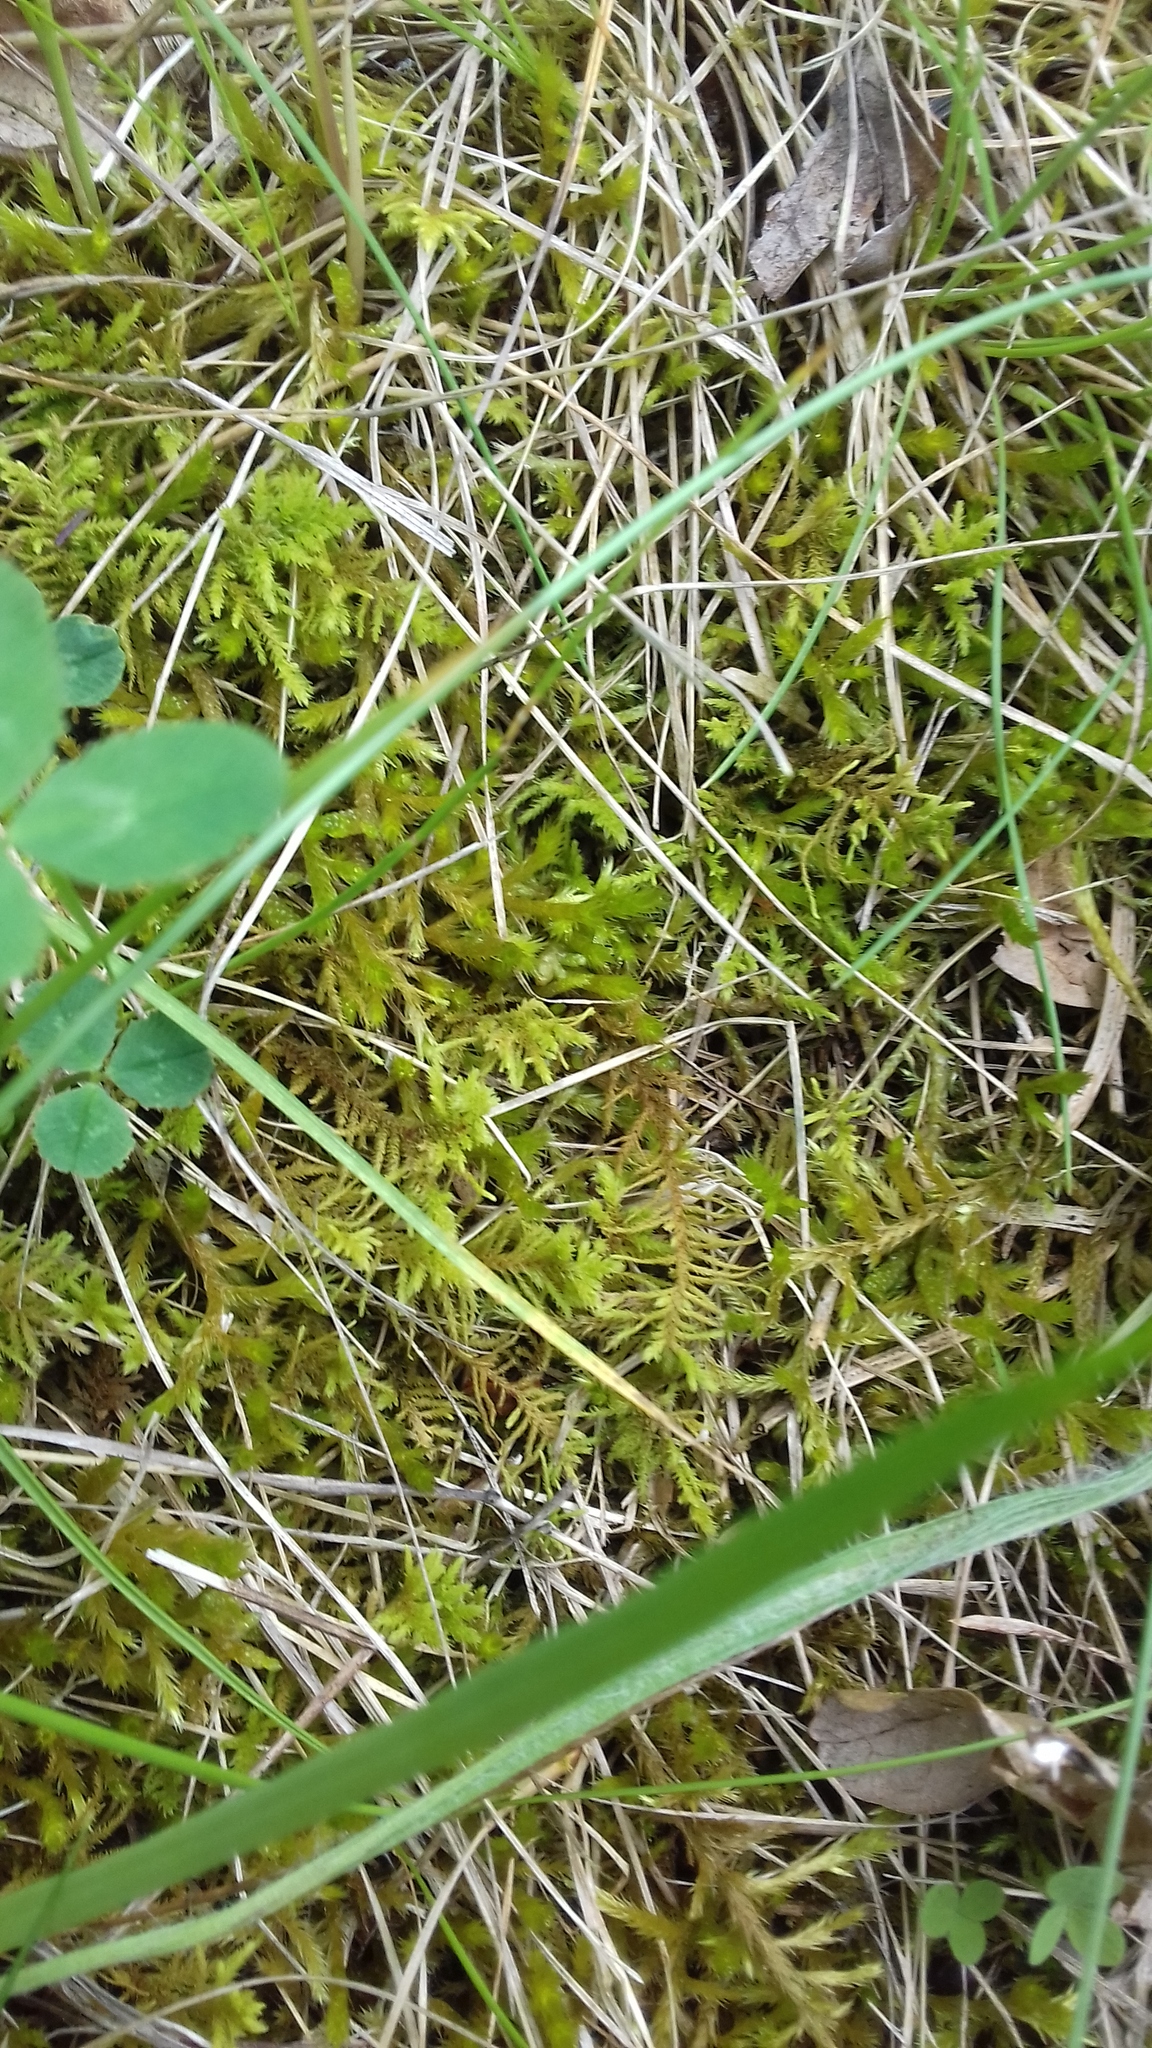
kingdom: Plantae
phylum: Bryophyta
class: Bryopsida
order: Hypnales
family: Thuidiaceae
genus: Abietinella
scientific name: Abietinella abietina
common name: Wiry fern moss
